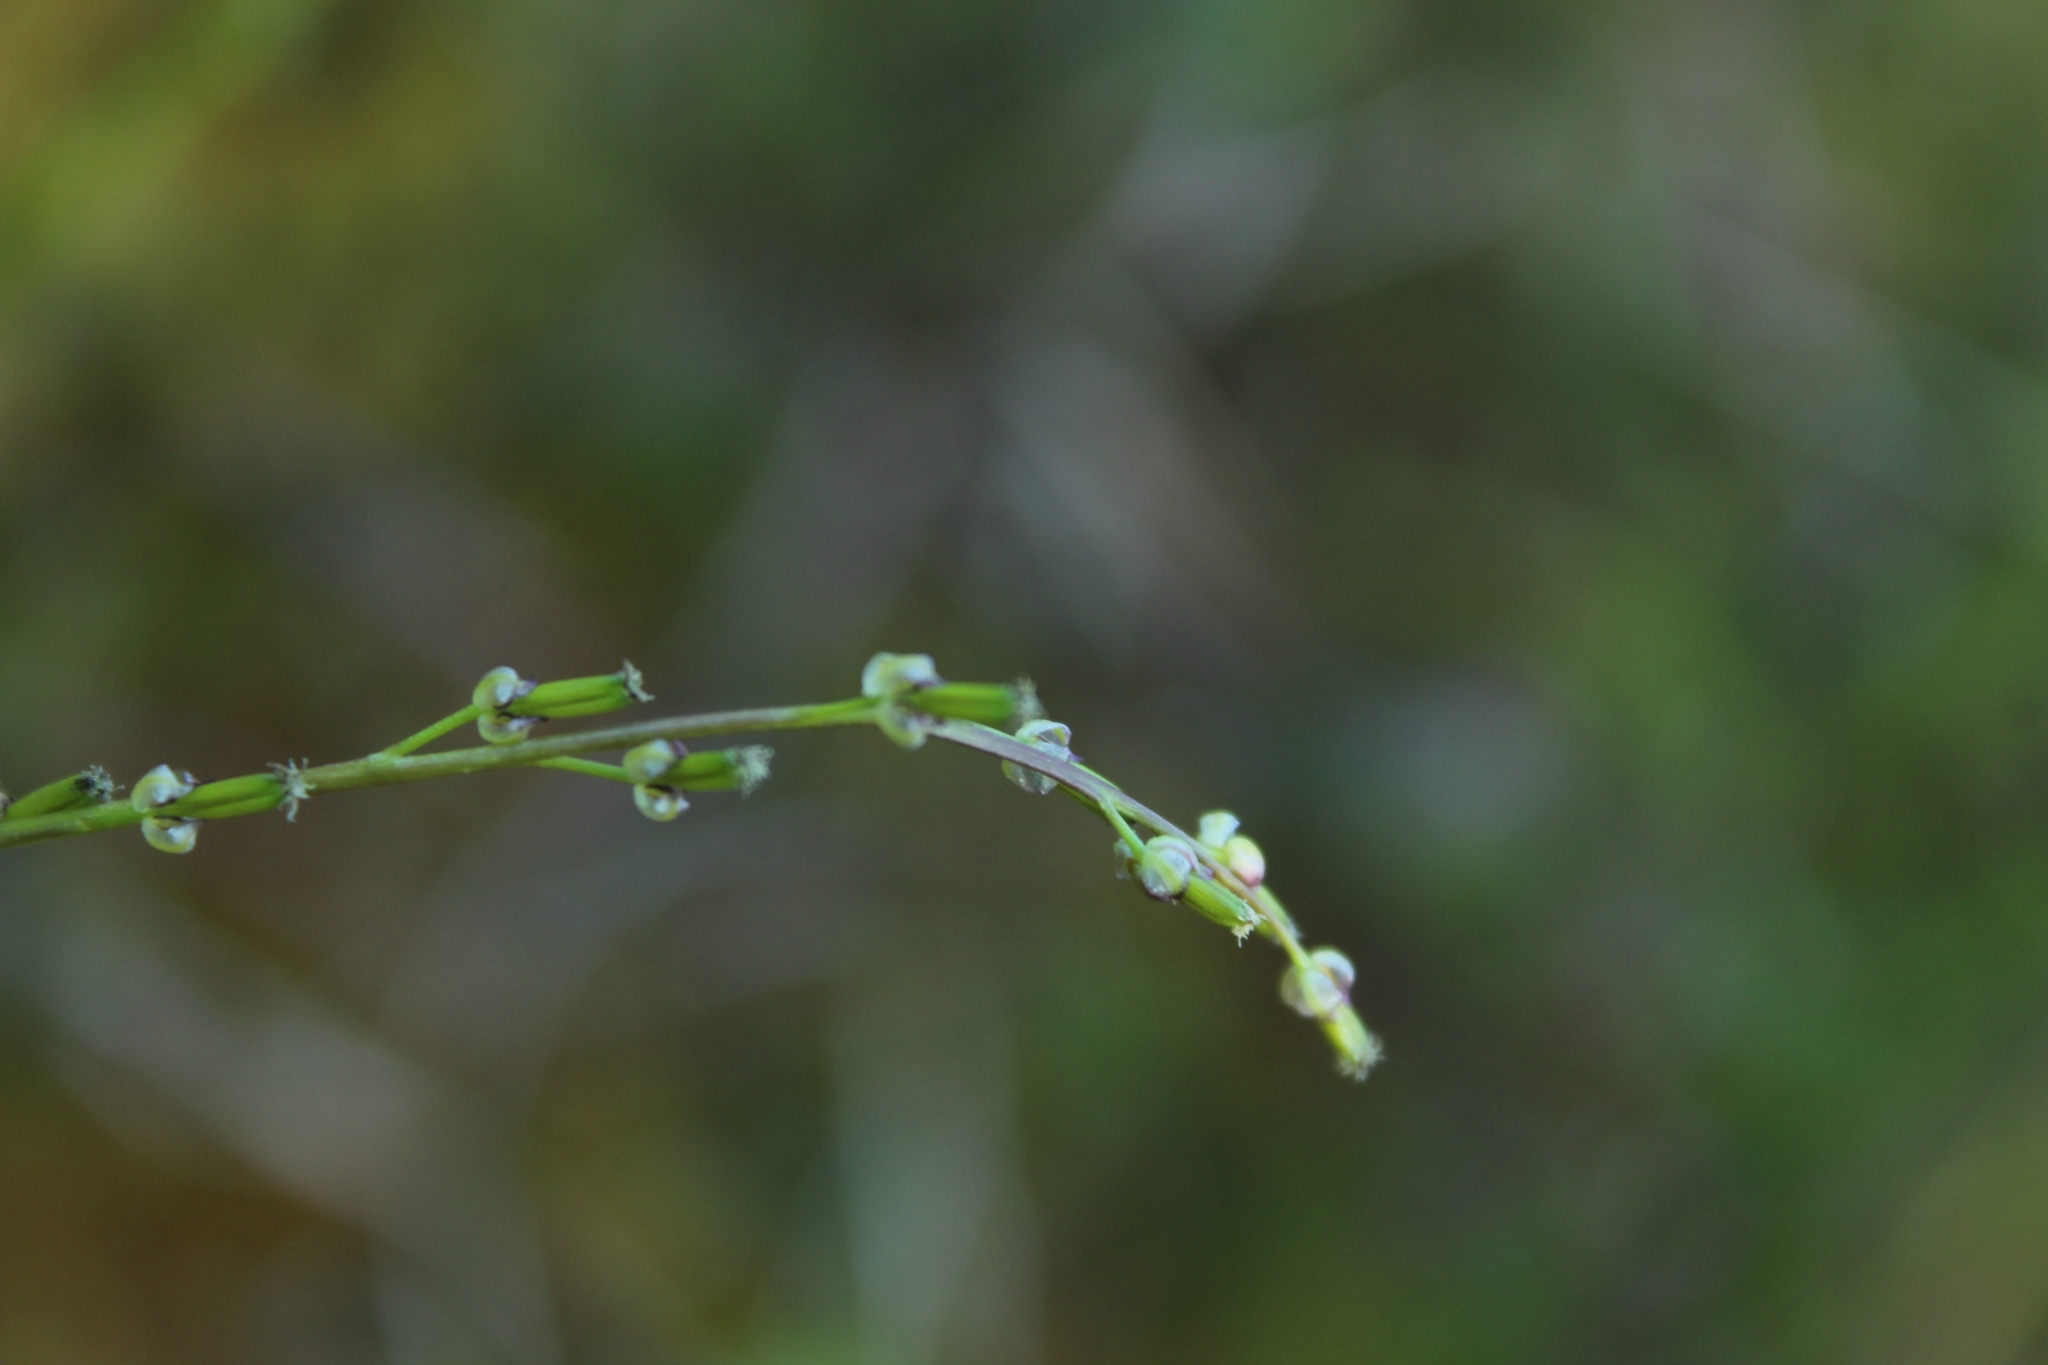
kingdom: Plantae
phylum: Tracheophyta
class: Liliopsida
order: Alismatales
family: Juncaginaceae
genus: Triglochin
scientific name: Triglochin palustris
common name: Marsh arrowgrass
